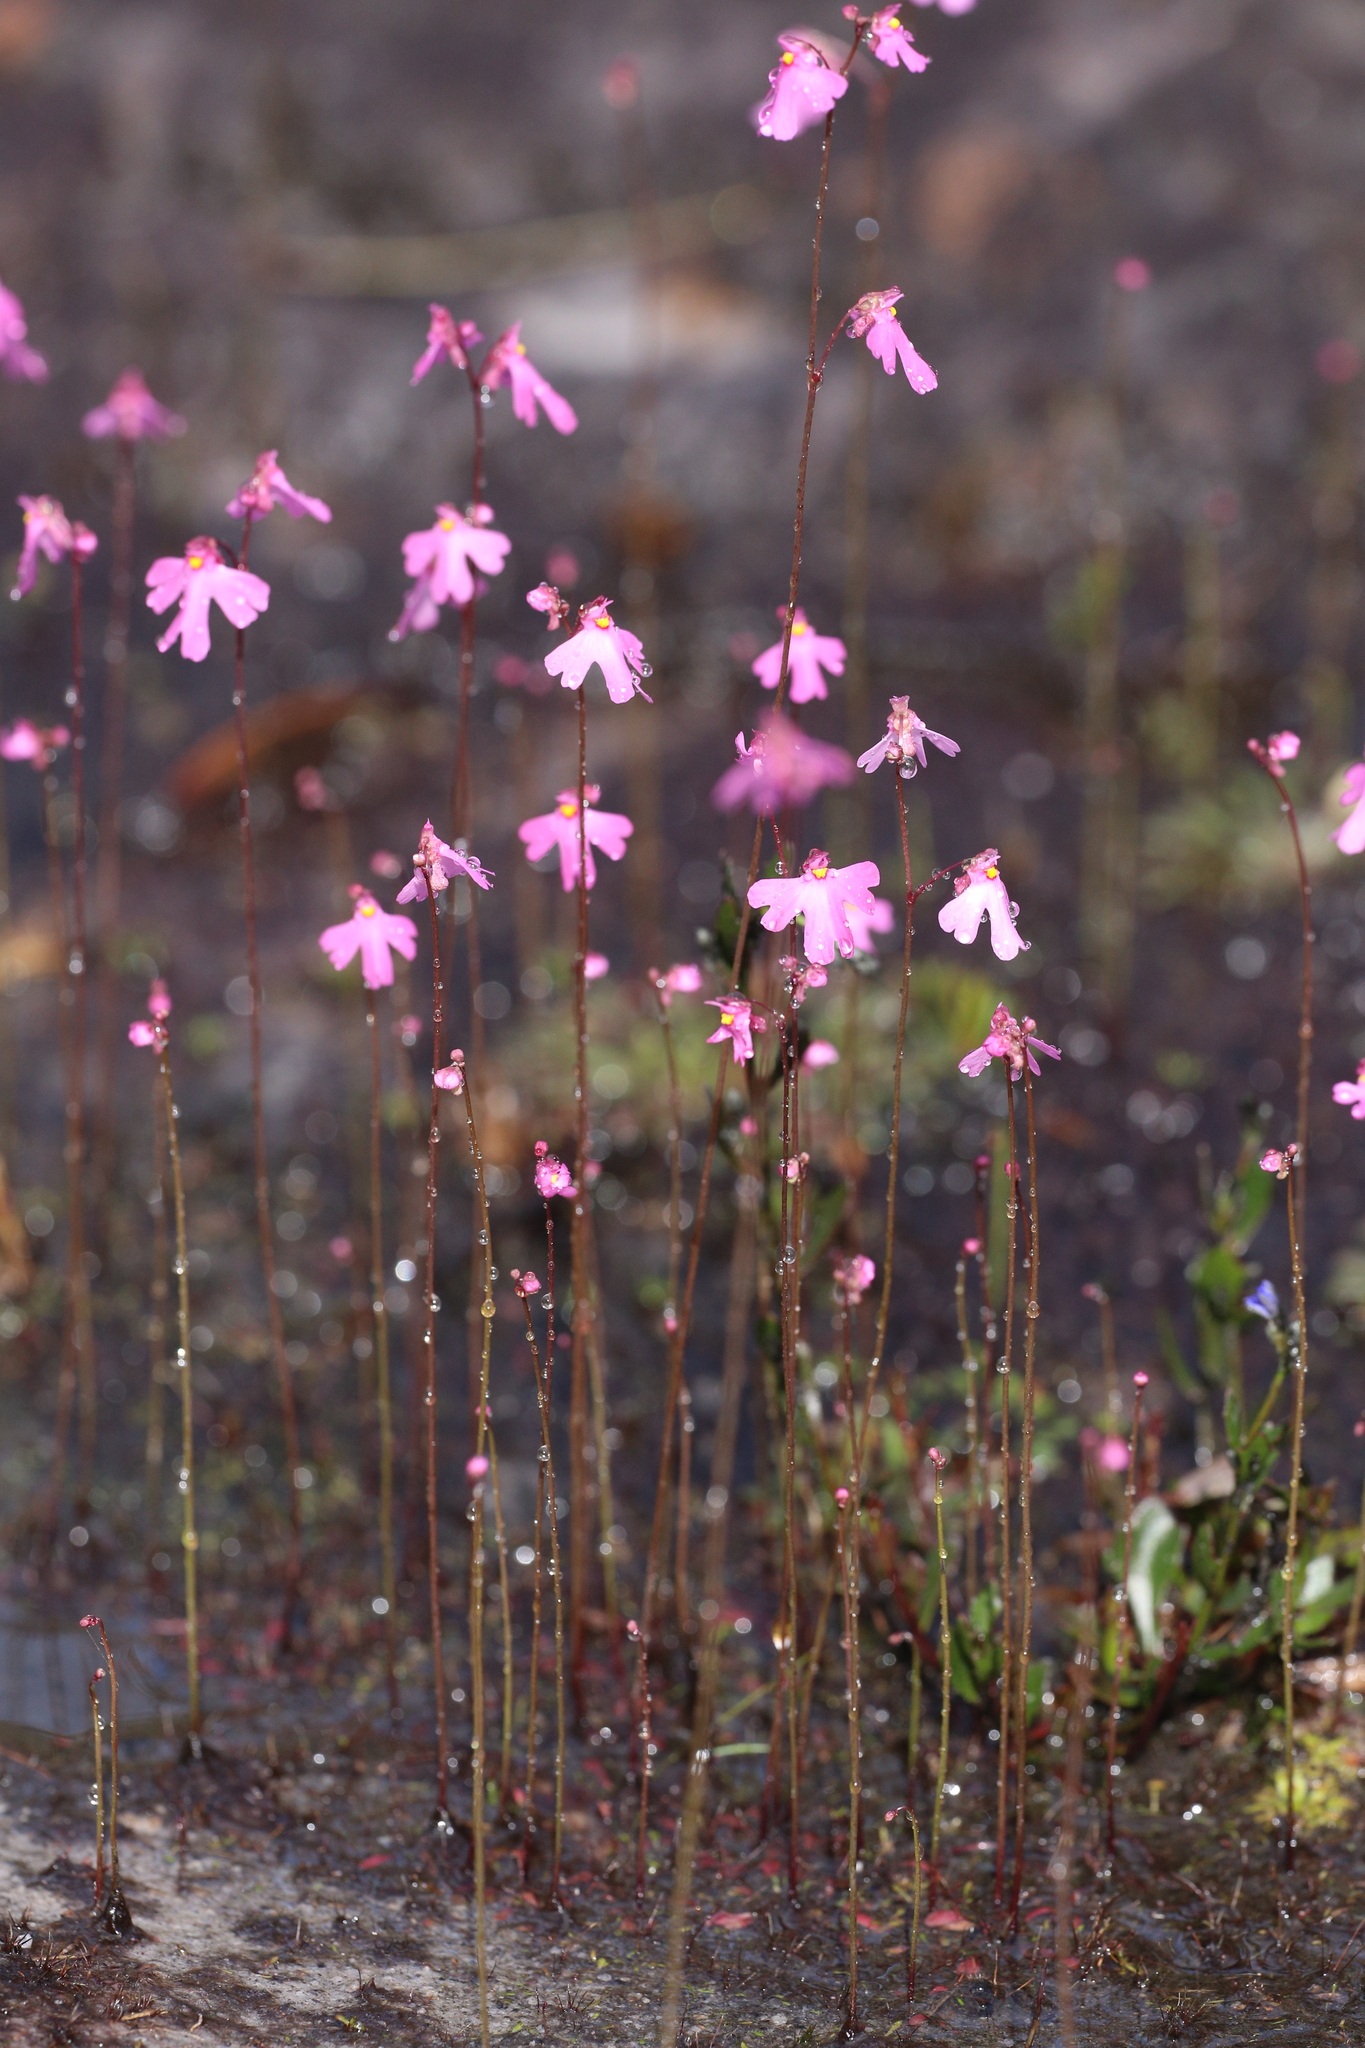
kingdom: Plantae
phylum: Tracheophyta
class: Magnoliopsida
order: Lamiales
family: Lentibulariaceae
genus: Utricularia
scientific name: Utricularia multifida
